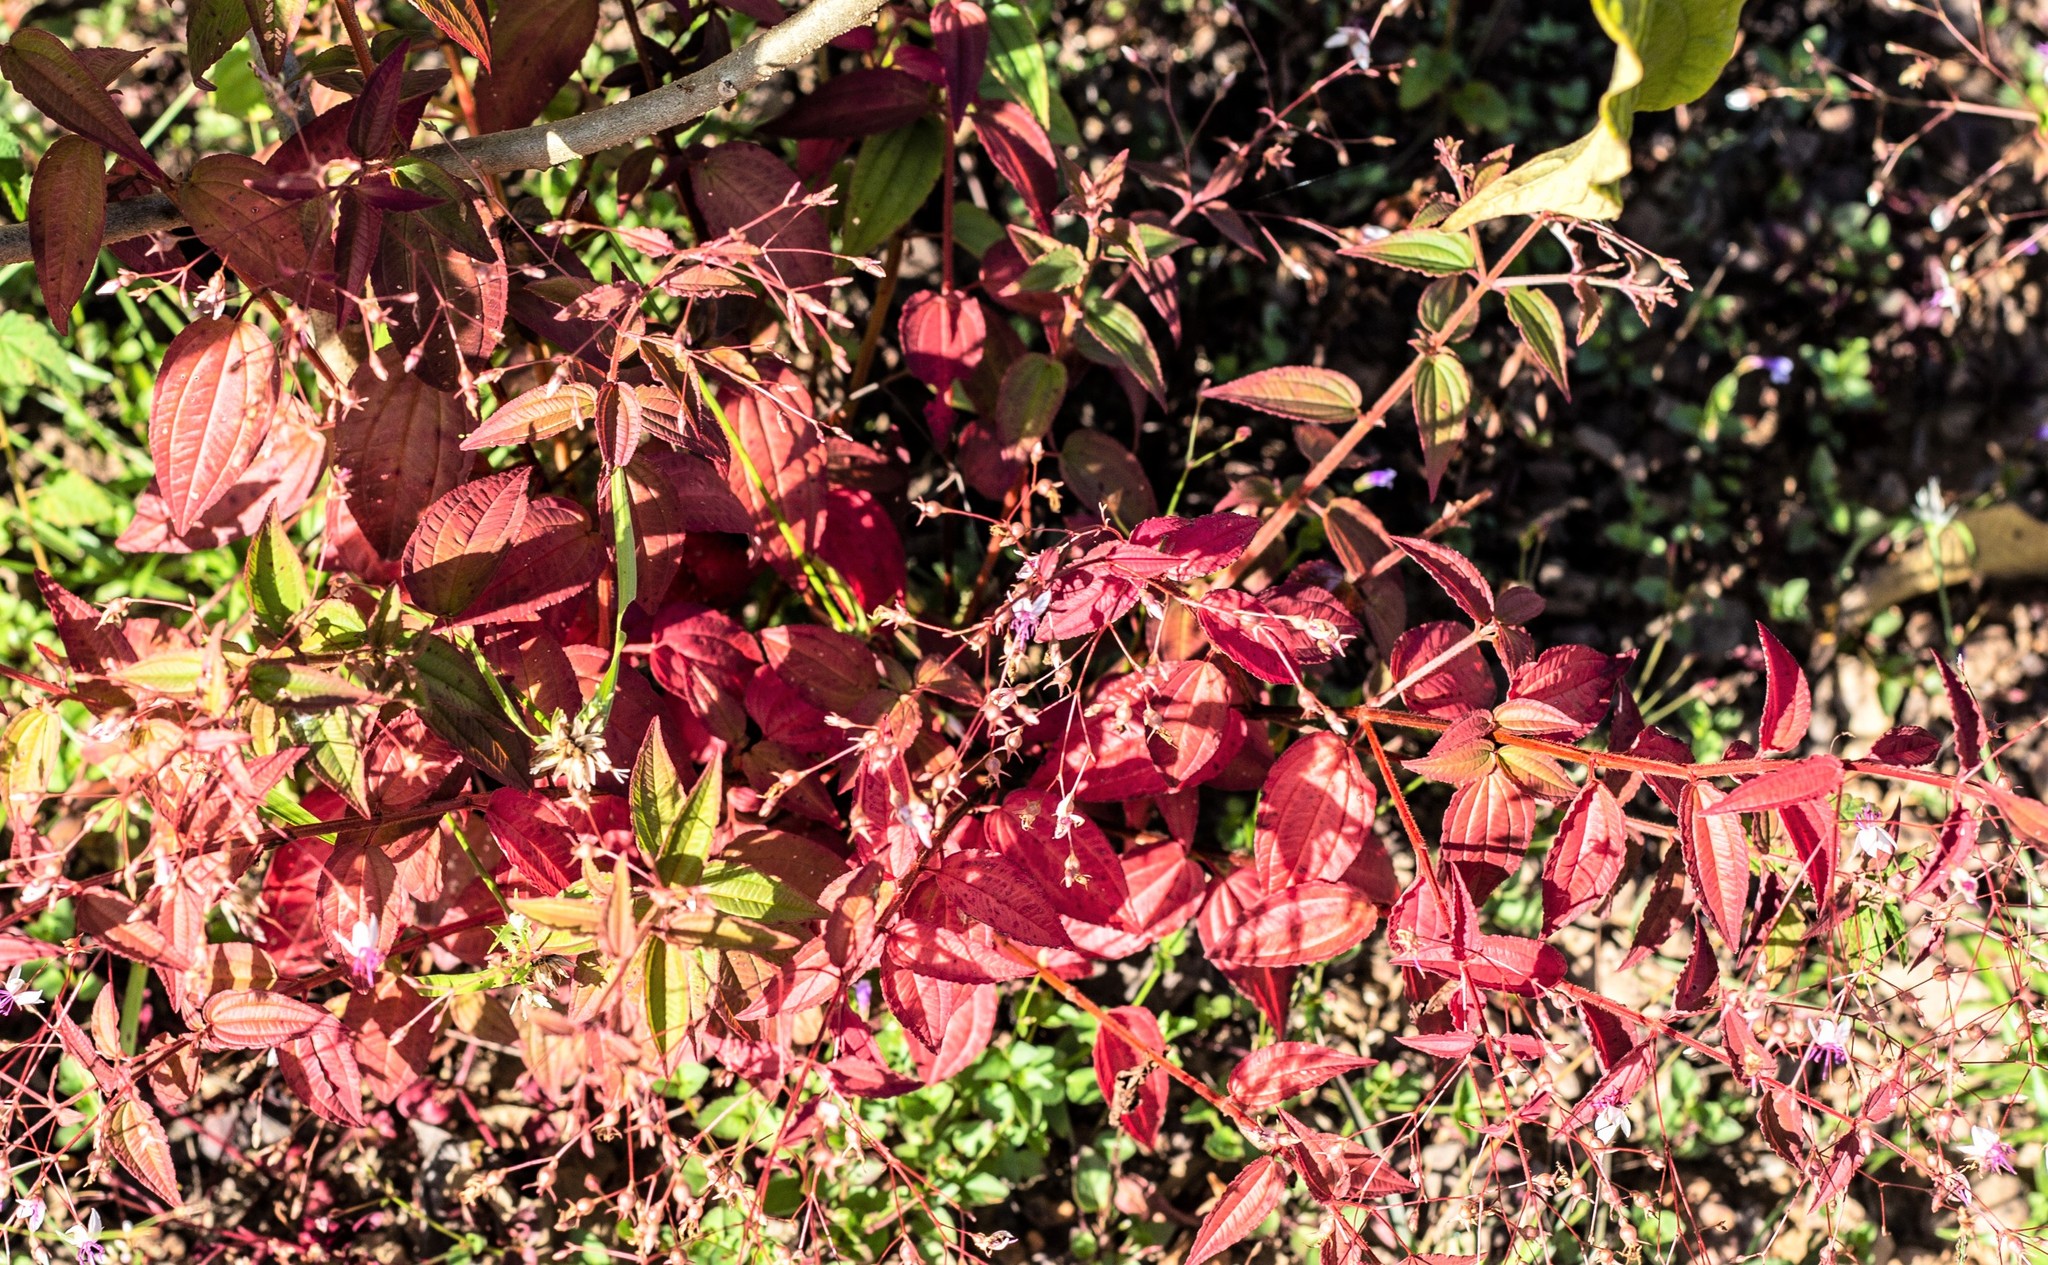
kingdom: Plantae
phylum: Tracheophyta
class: Magnoliopsida
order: Myrtales
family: Melastomataceae
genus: Nepsera
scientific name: Nepsera aquatica
